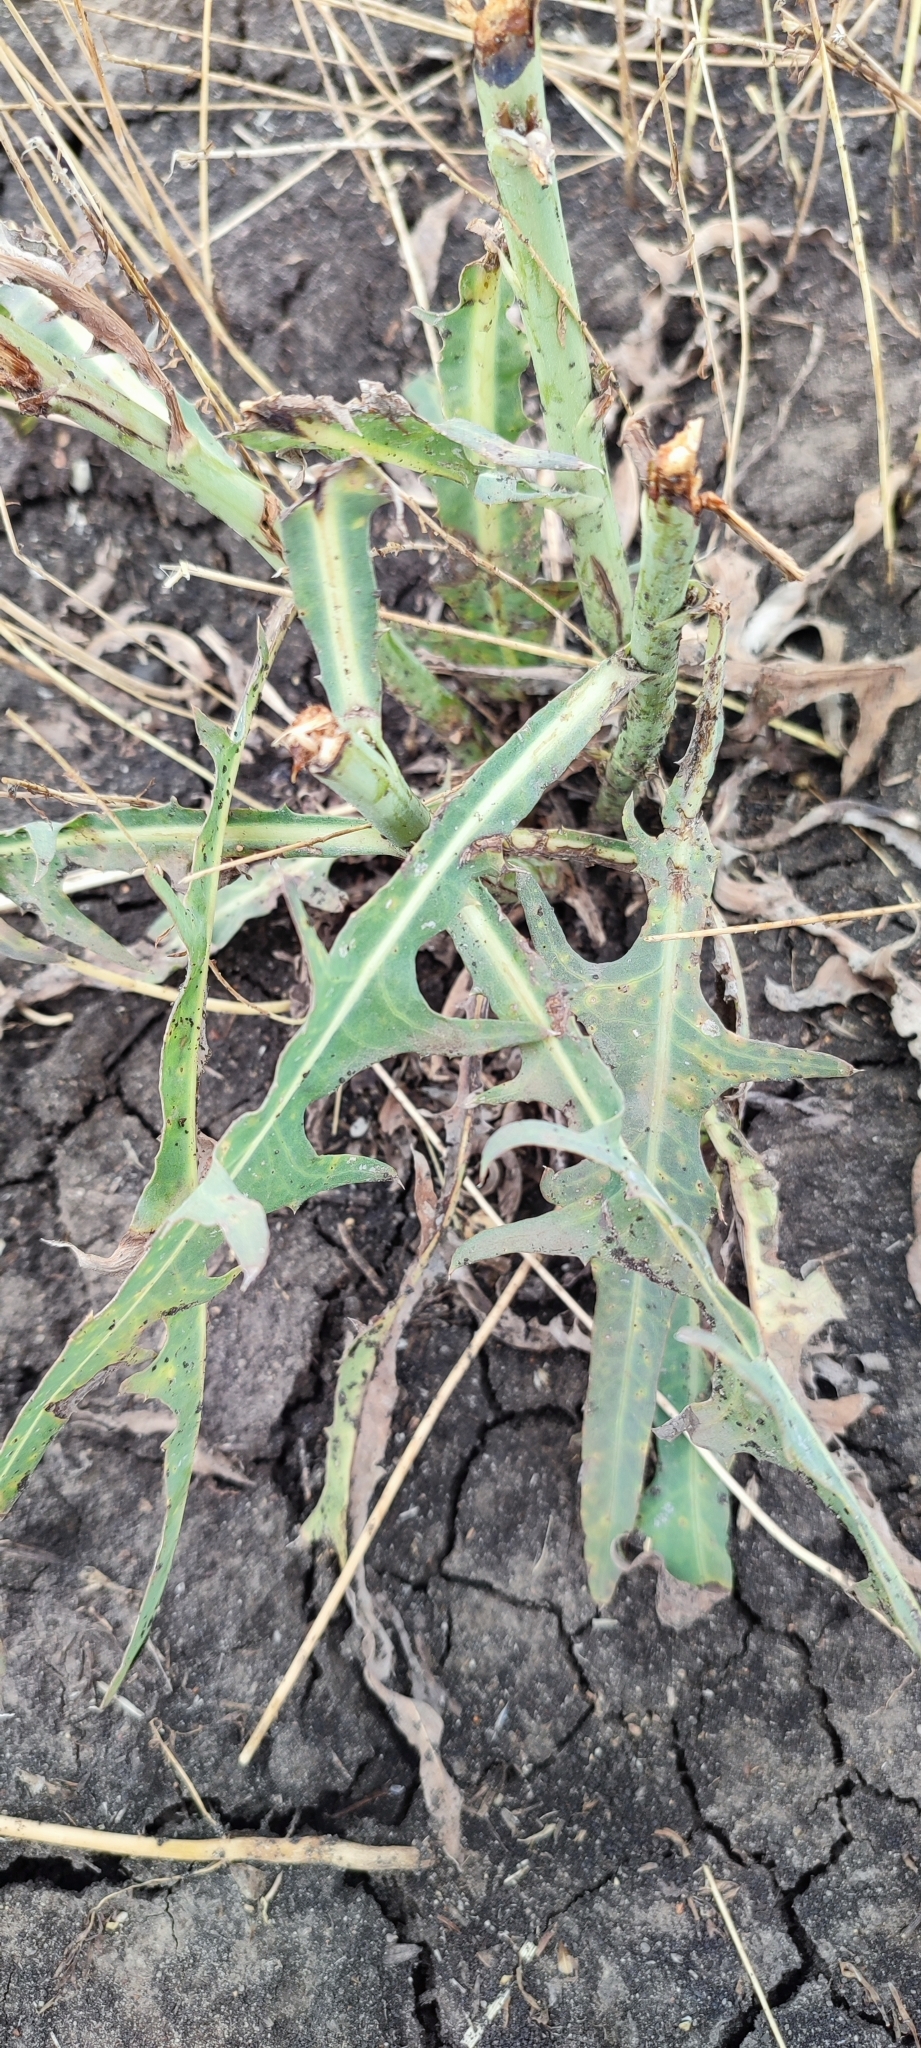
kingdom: Plantae
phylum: Tracheophyta
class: Magnoliopsida
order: Asterales
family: Asteraceae
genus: Lactuca
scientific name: Lactuca tatarica
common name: Blue lettuce
